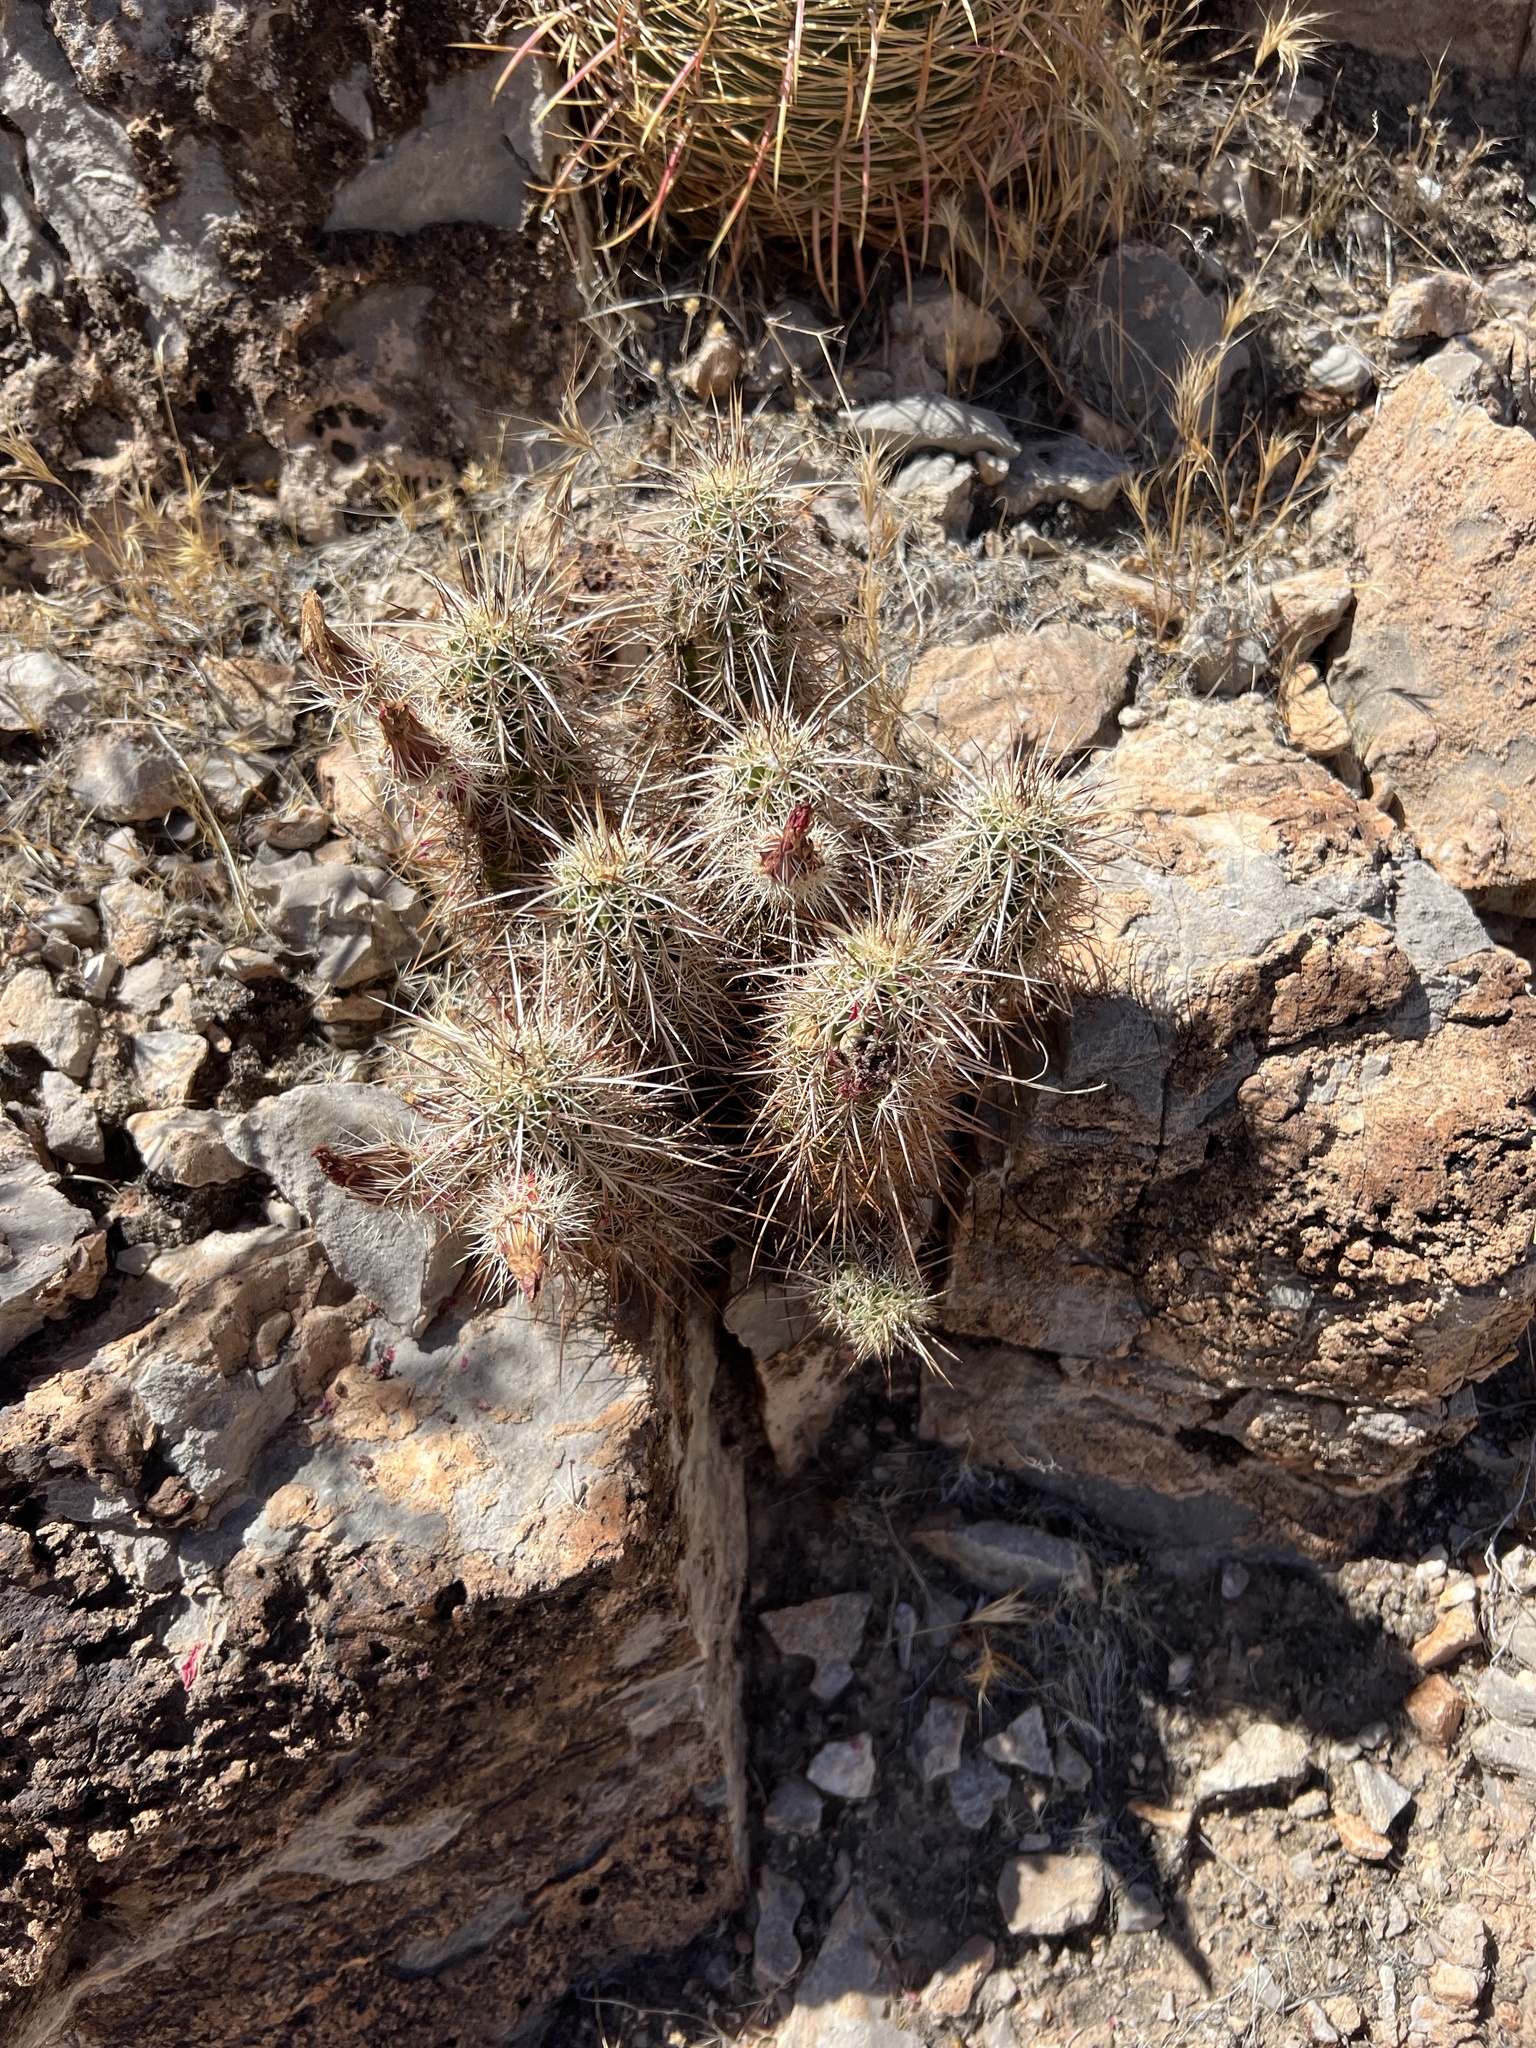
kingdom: Plantae
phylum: Tracheophyta
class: Magnoliopsida
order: Caryophyllales
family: Cactaceae
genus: Echinocereus
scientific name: Echinocereus engelmannii
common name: Engelmann's hedgehog cactus
